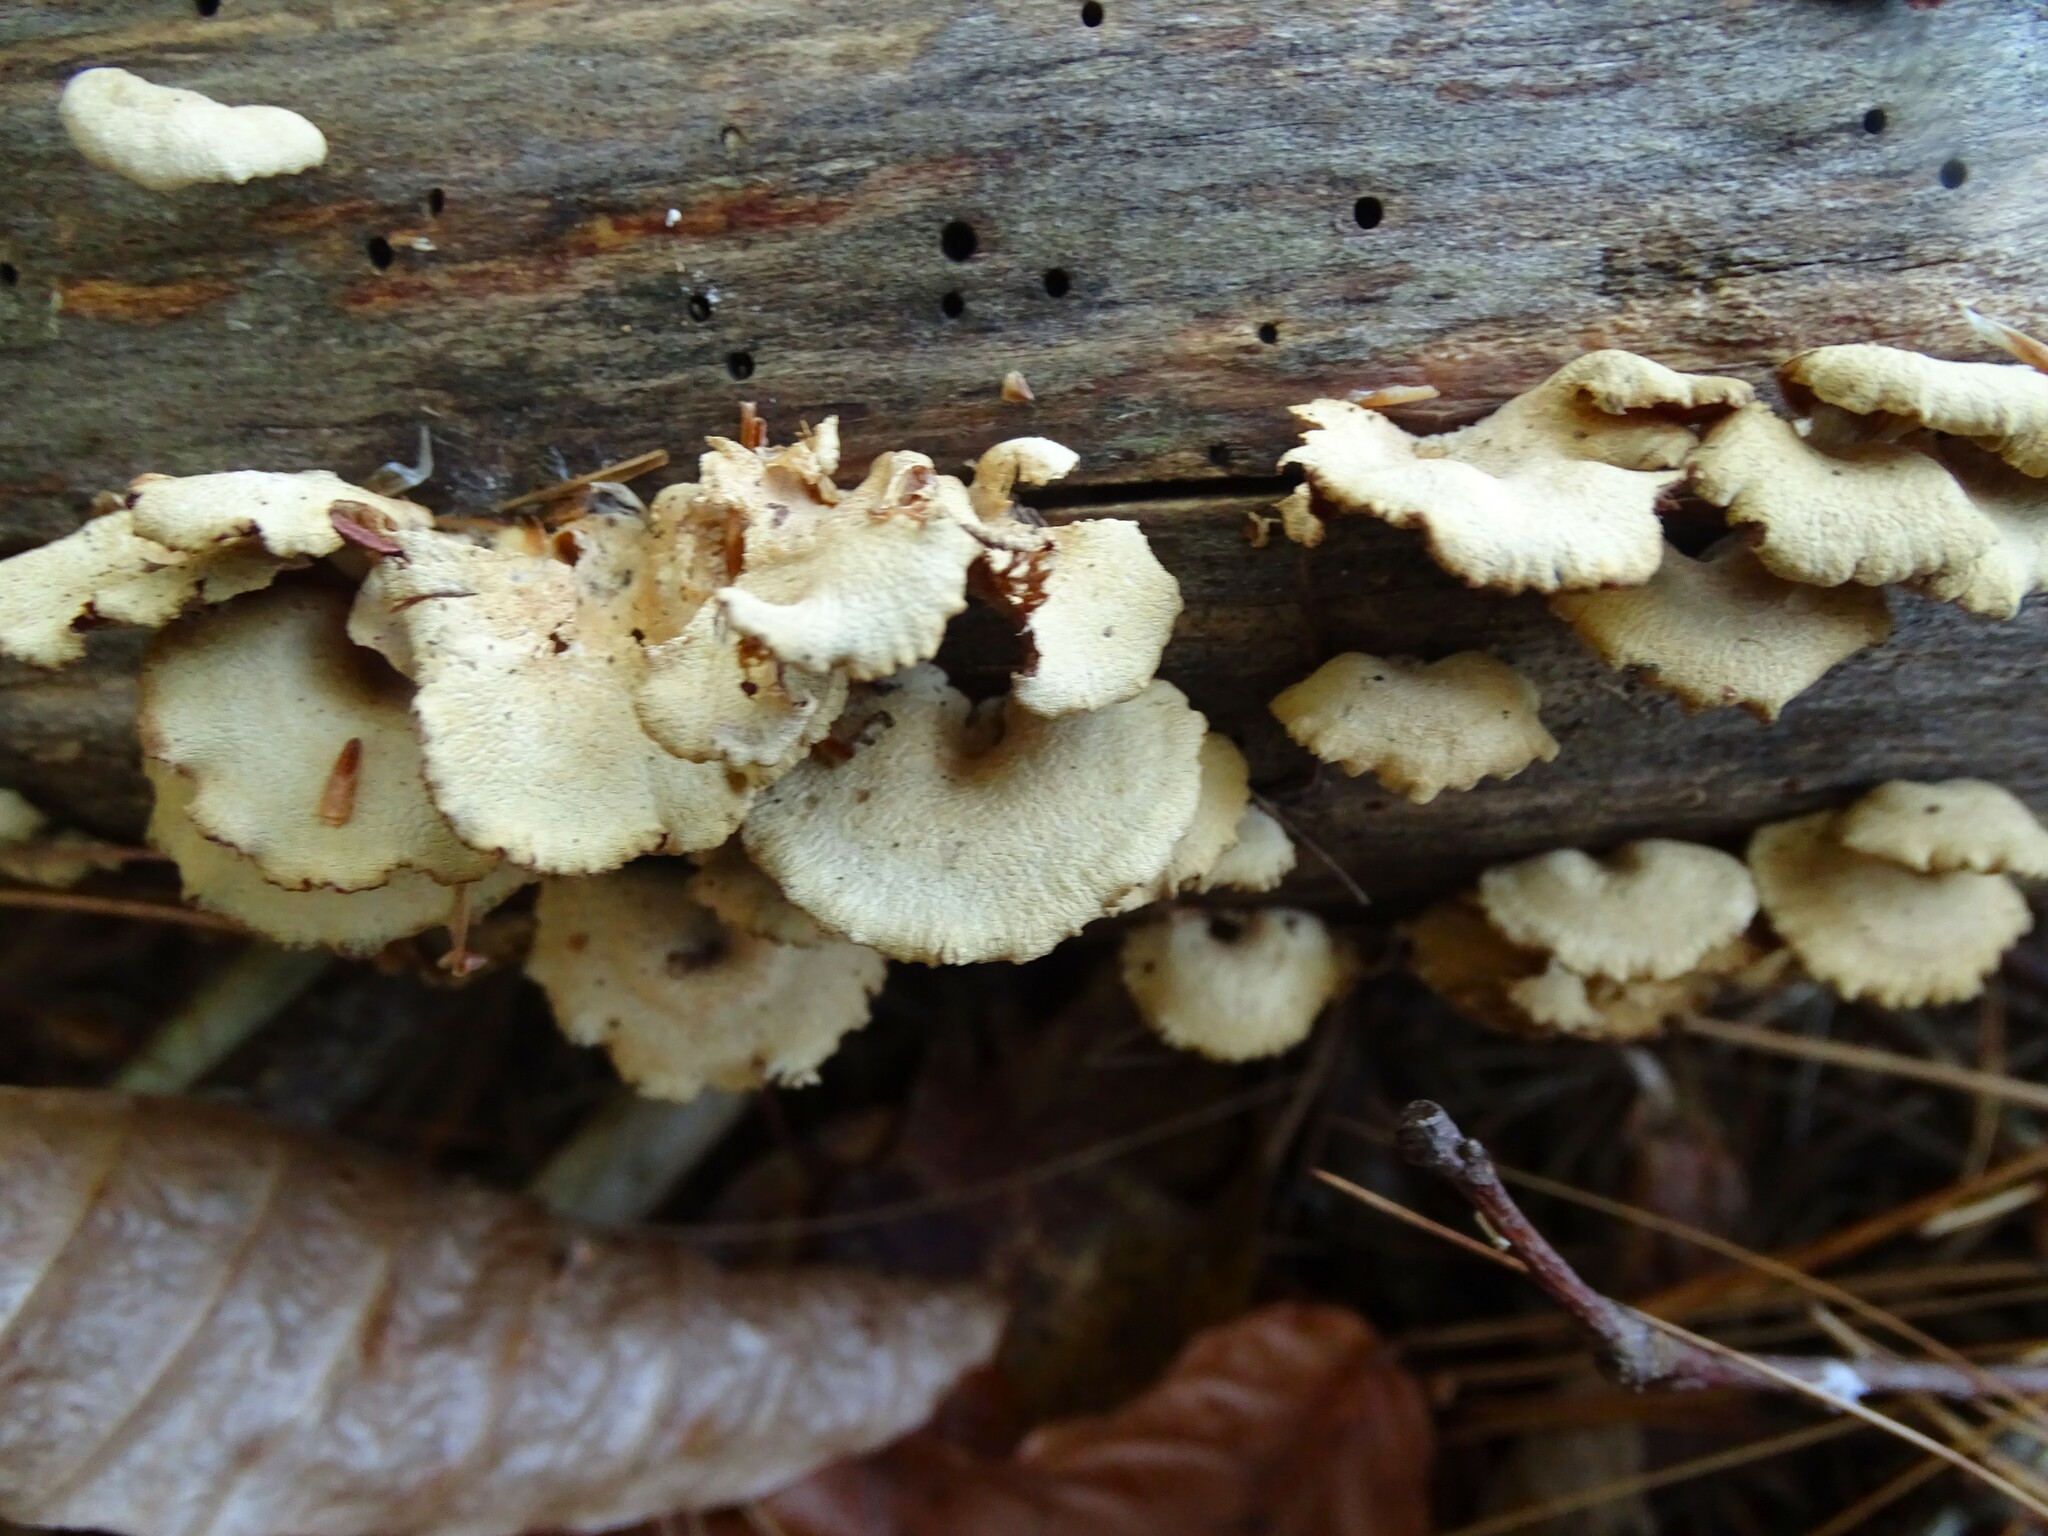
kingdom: Fungi
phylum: Basidiomycota
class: Agaricomycetes
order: Agaricales
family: Mycenaceae
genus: Panellus
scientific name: Panellus stipticus
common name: Bitter oysterling
